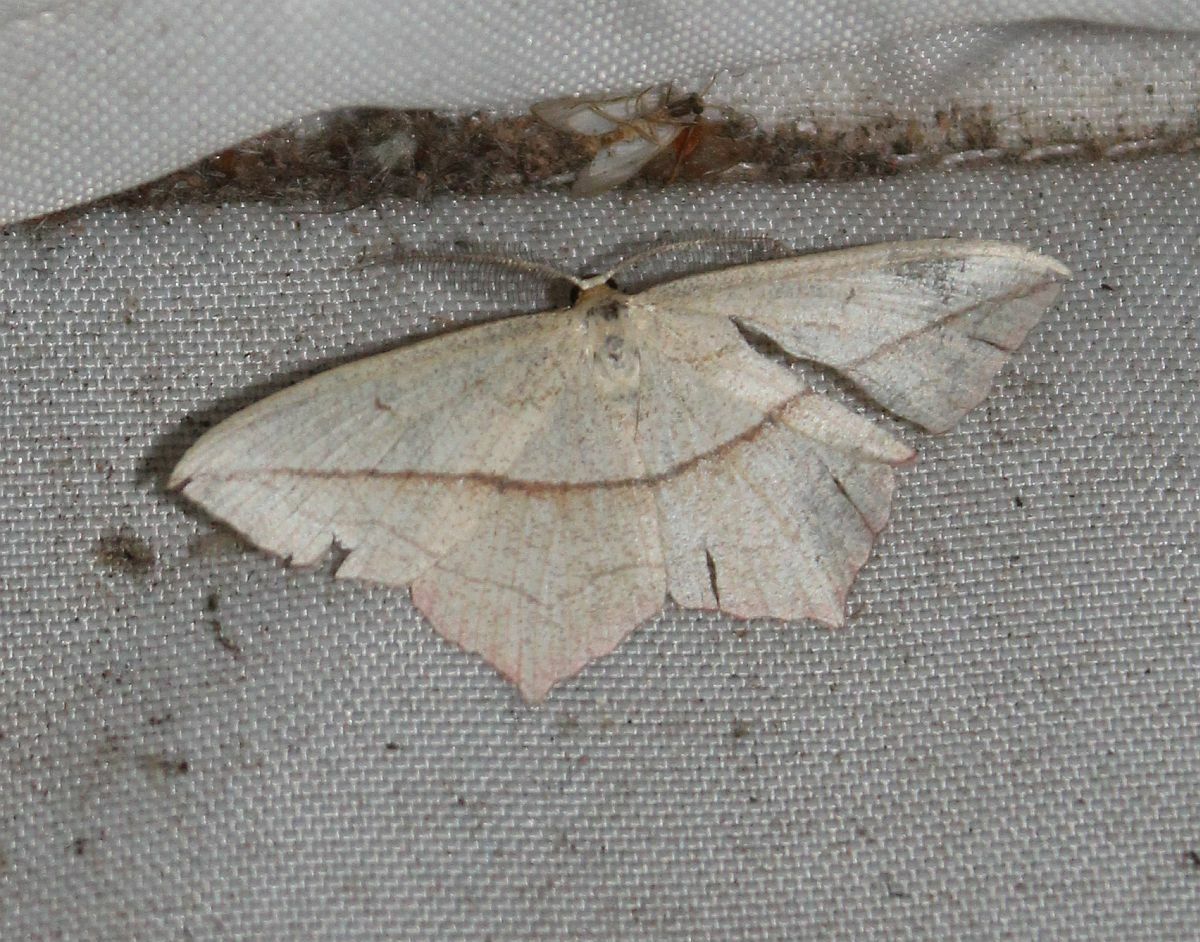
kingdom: Animalia
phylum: Arthropoda
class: Insecta
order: Lepidoptera
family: Geometridae
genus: Timandra
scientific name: Timandra comae
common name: Blood-vein
